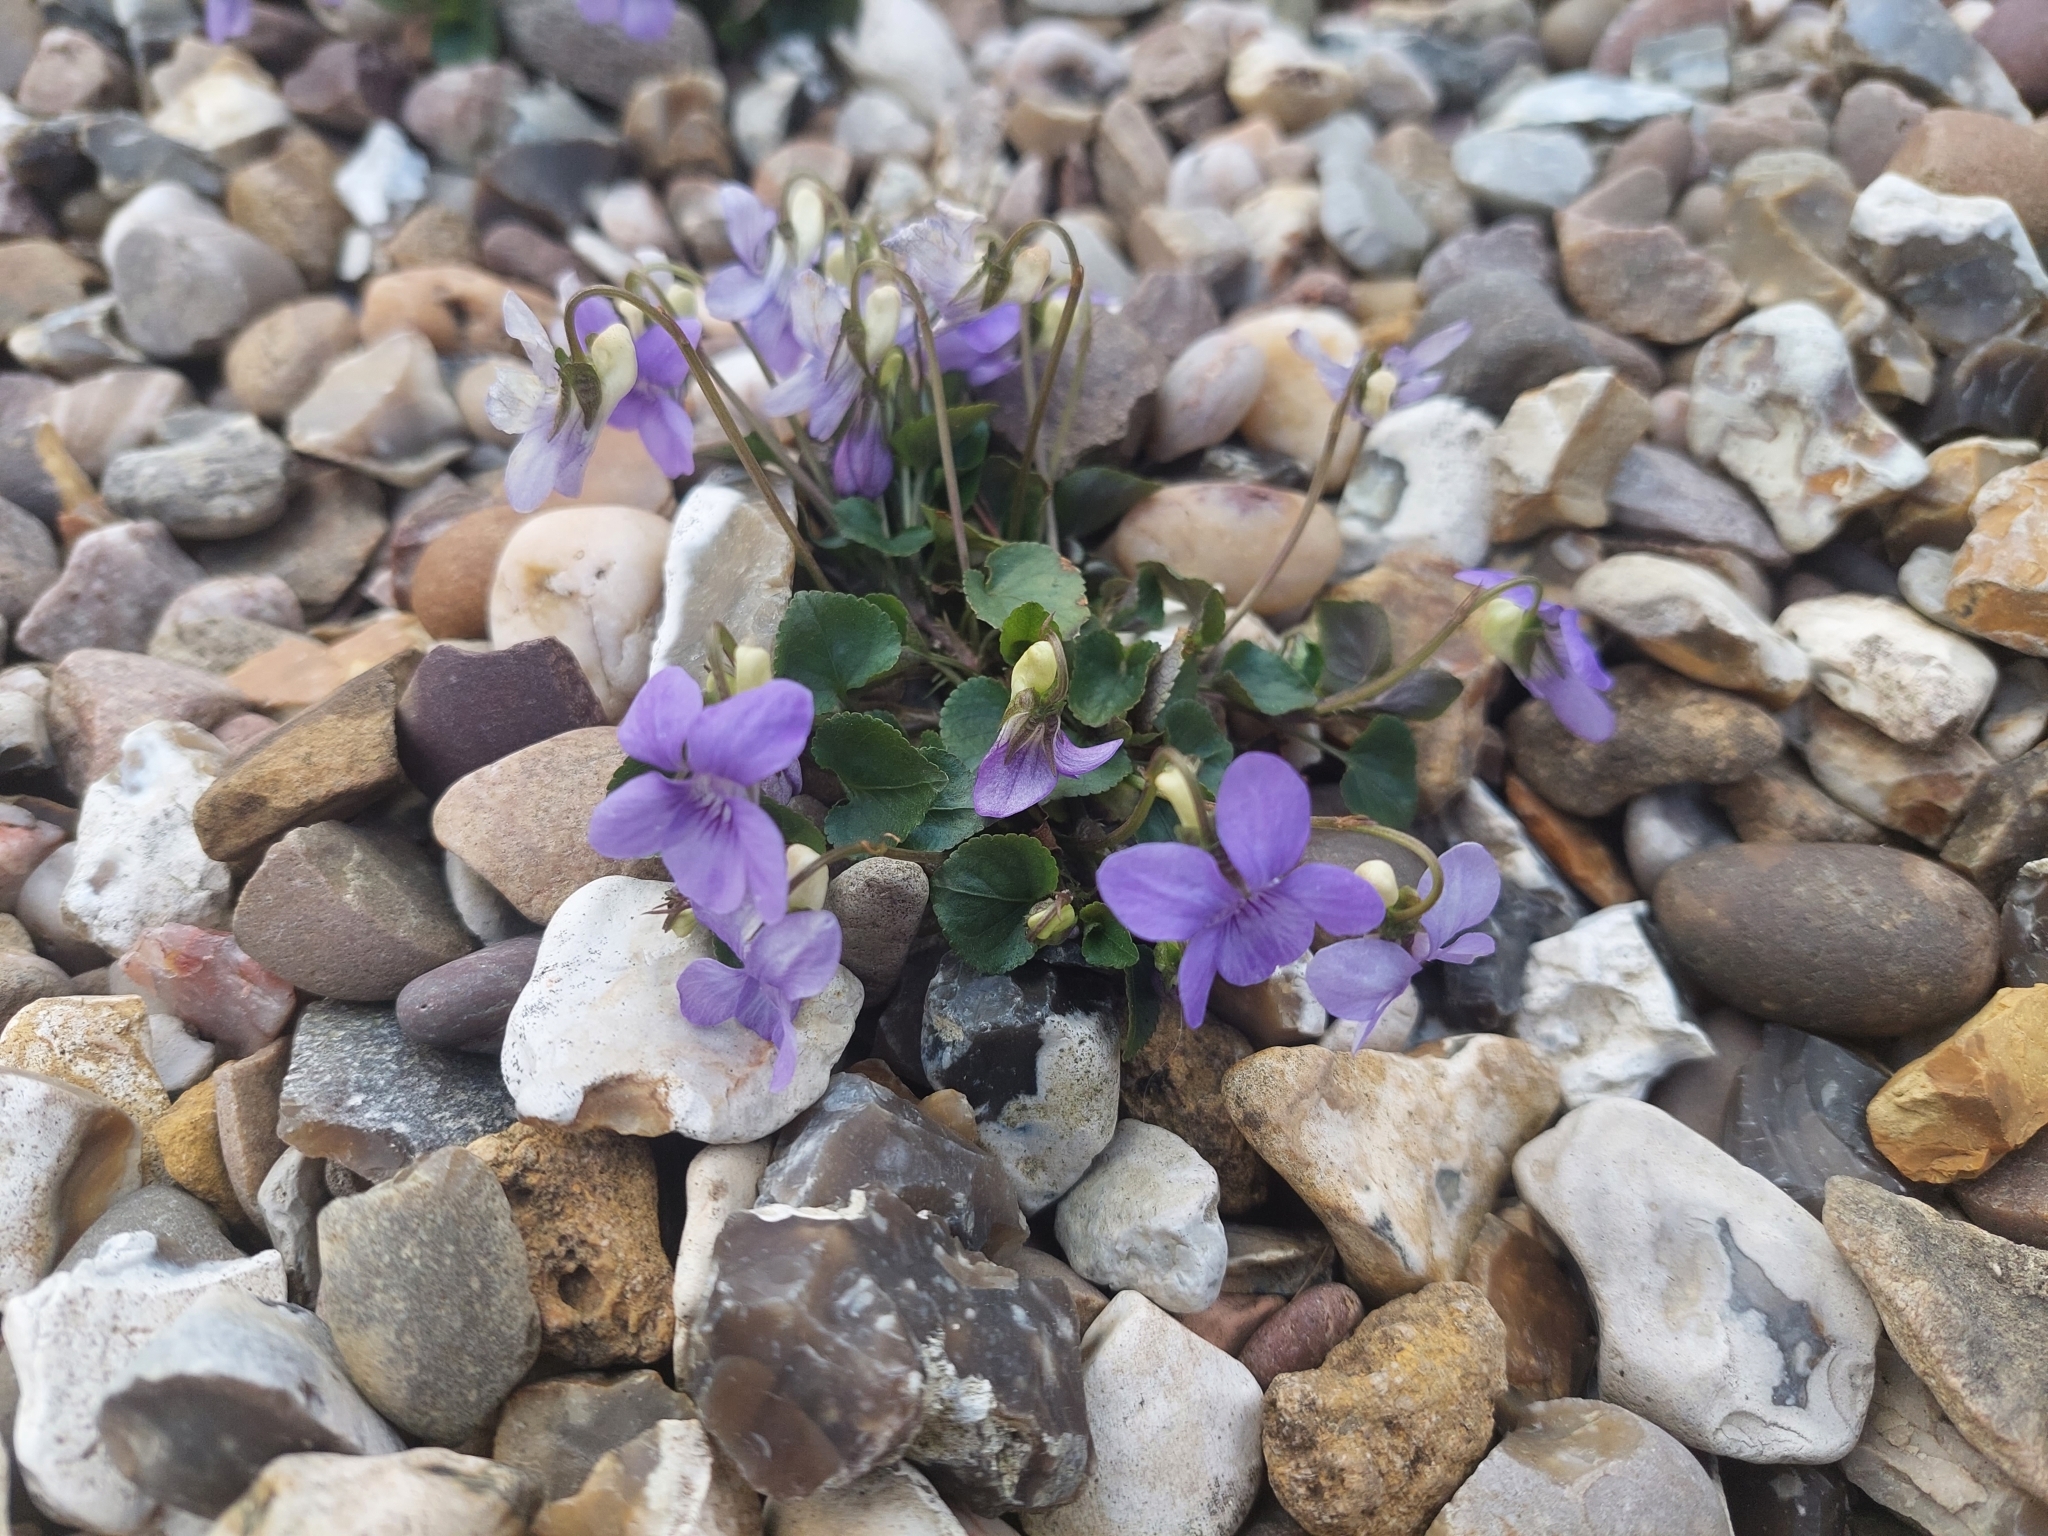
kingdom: Plantae
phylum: Tracheophyta
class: Magnoliopsida
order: Malpighiales
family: Violaceae
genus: Viola
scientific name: Viola riviniana
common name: Common dog-violet
